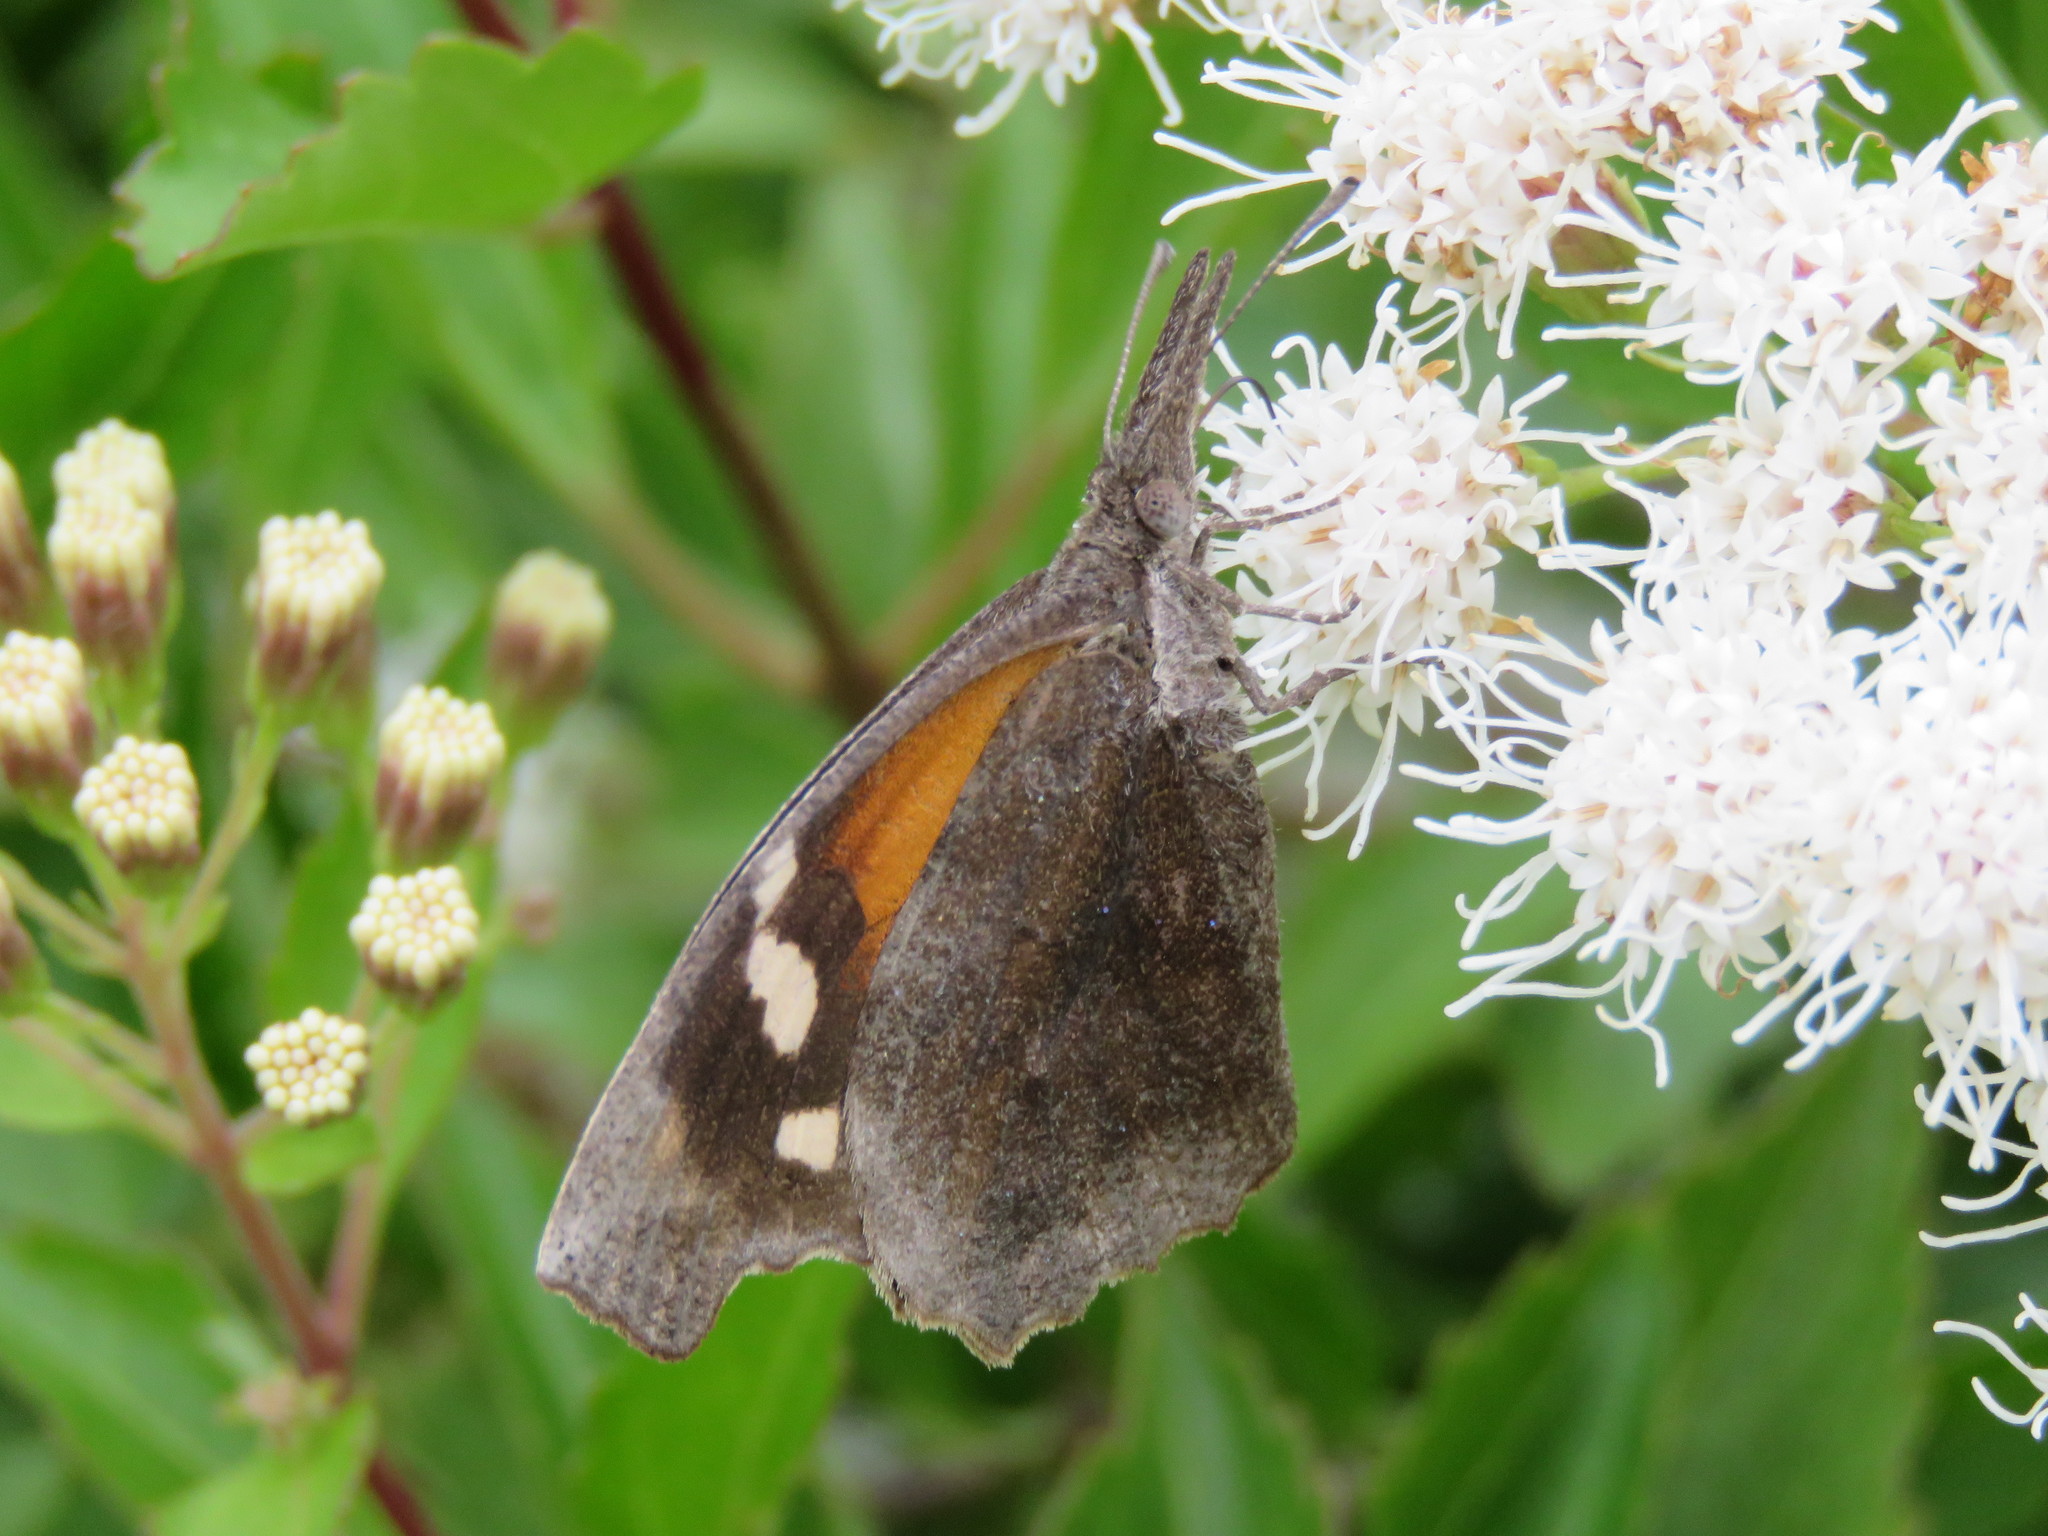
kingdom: Animalia
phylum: Arthropoda
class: Insecta
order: Lepidoptera
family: Nymphalidae
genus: Libytheana
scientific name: Libytheana carinenta
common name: American snout
